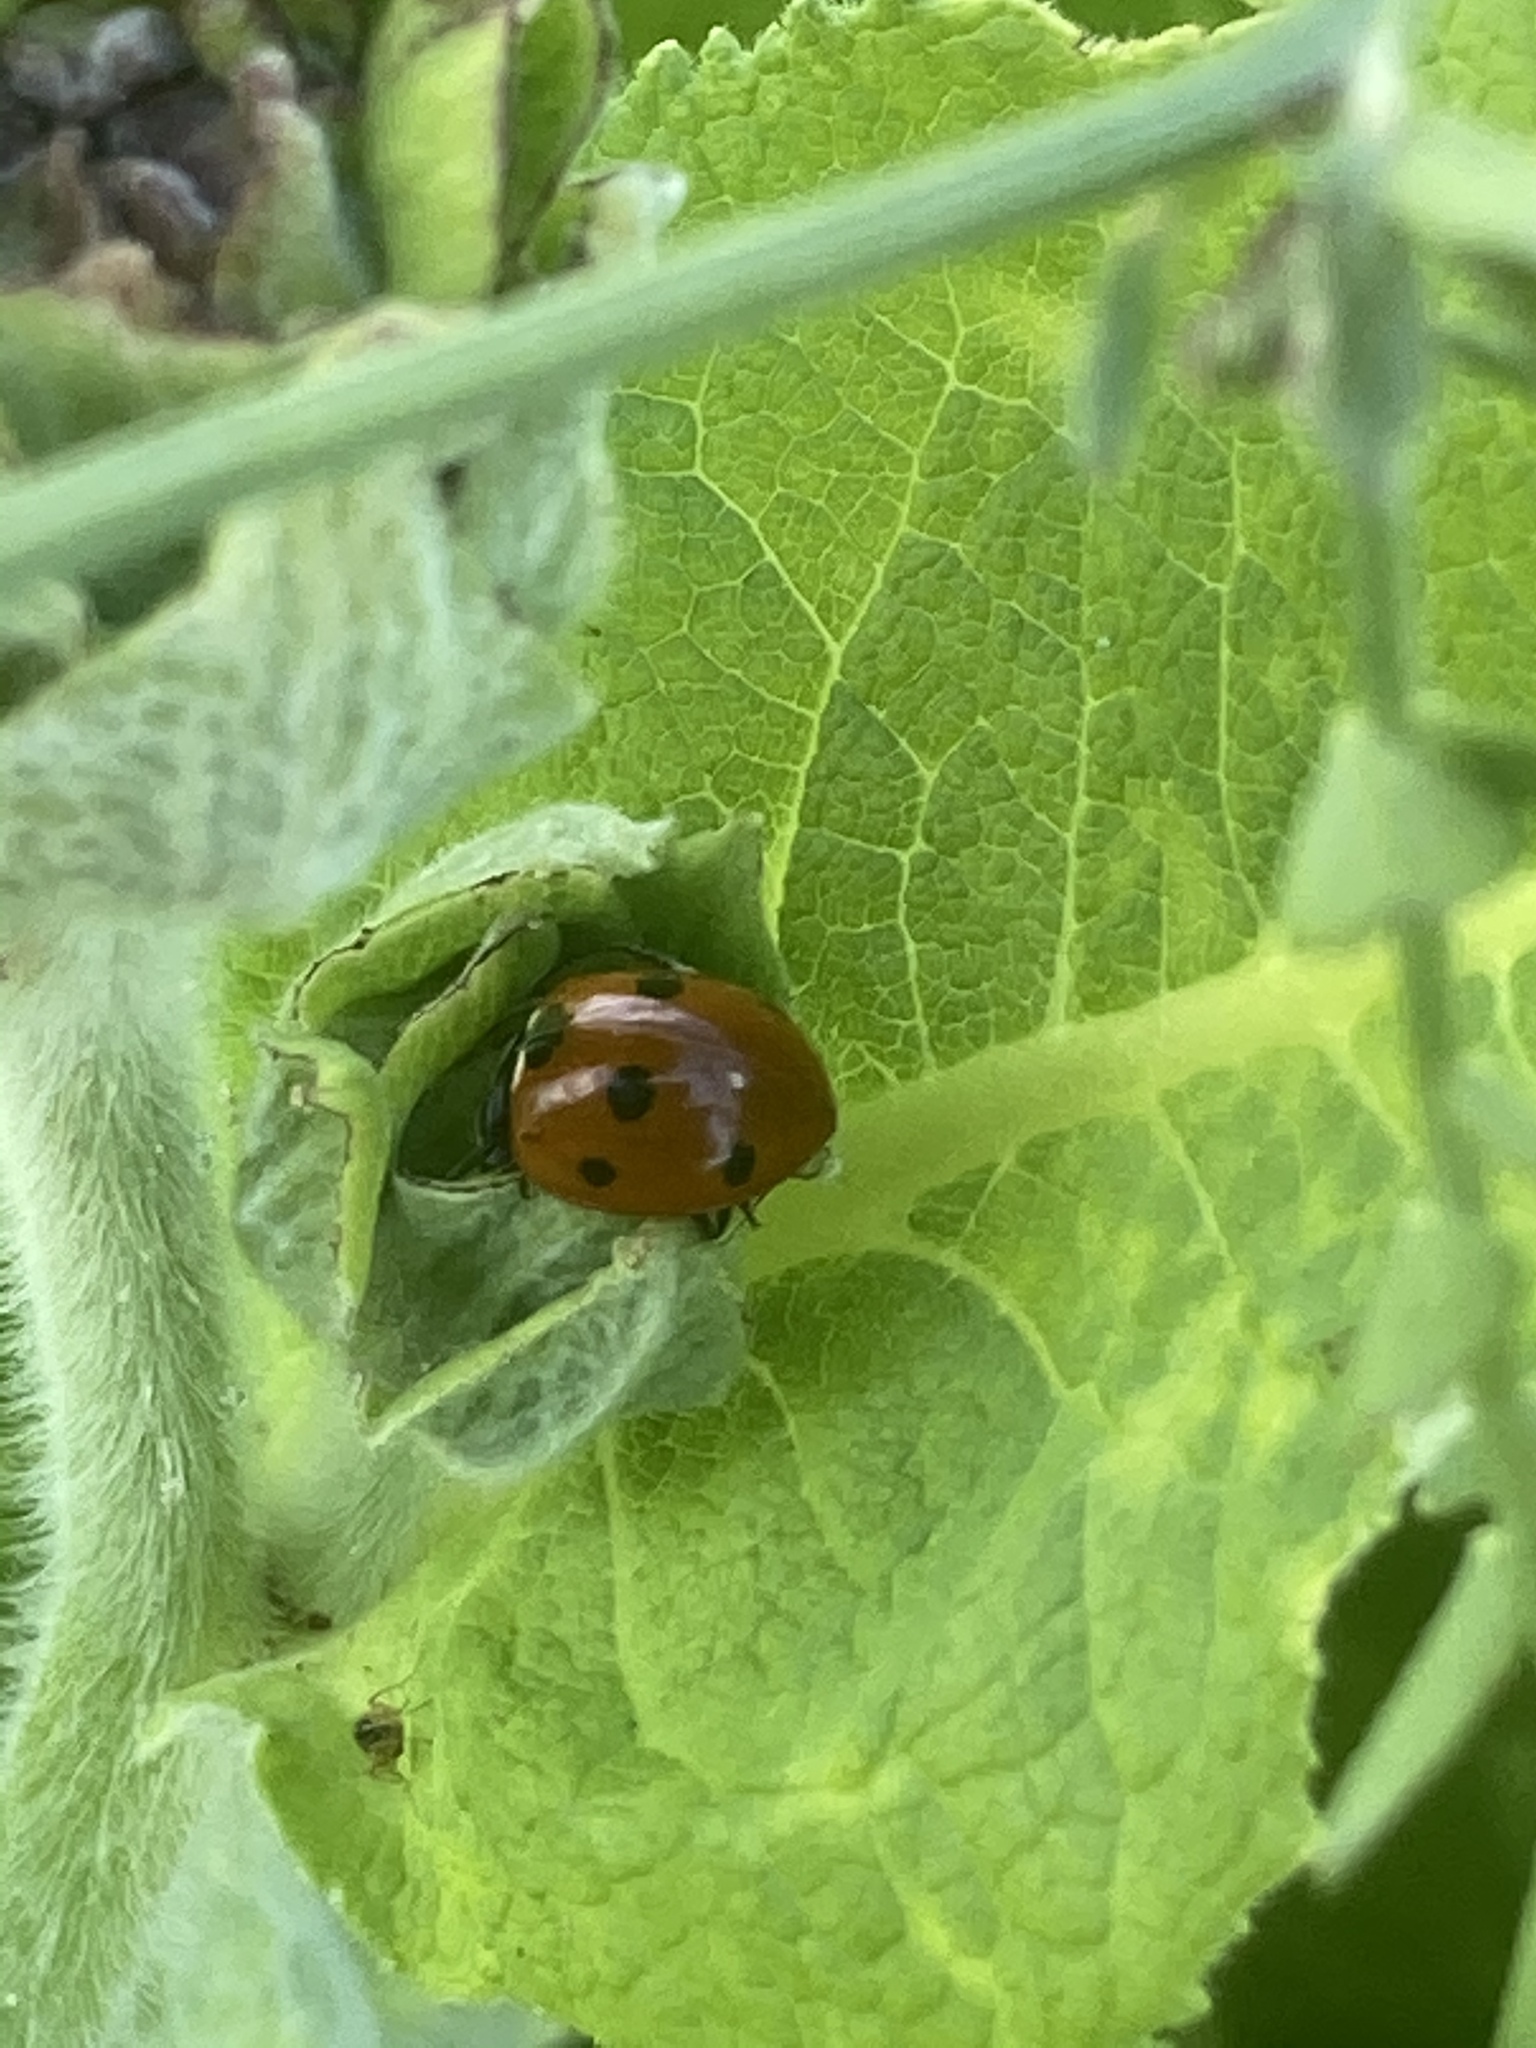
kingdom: Animalia
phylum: Arthropoda
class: Insecta
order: Coleoptera
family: Coccinellidae
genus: Coccinella
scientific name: Coccinella septempunctata
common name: Sevenspotted lady beetle
